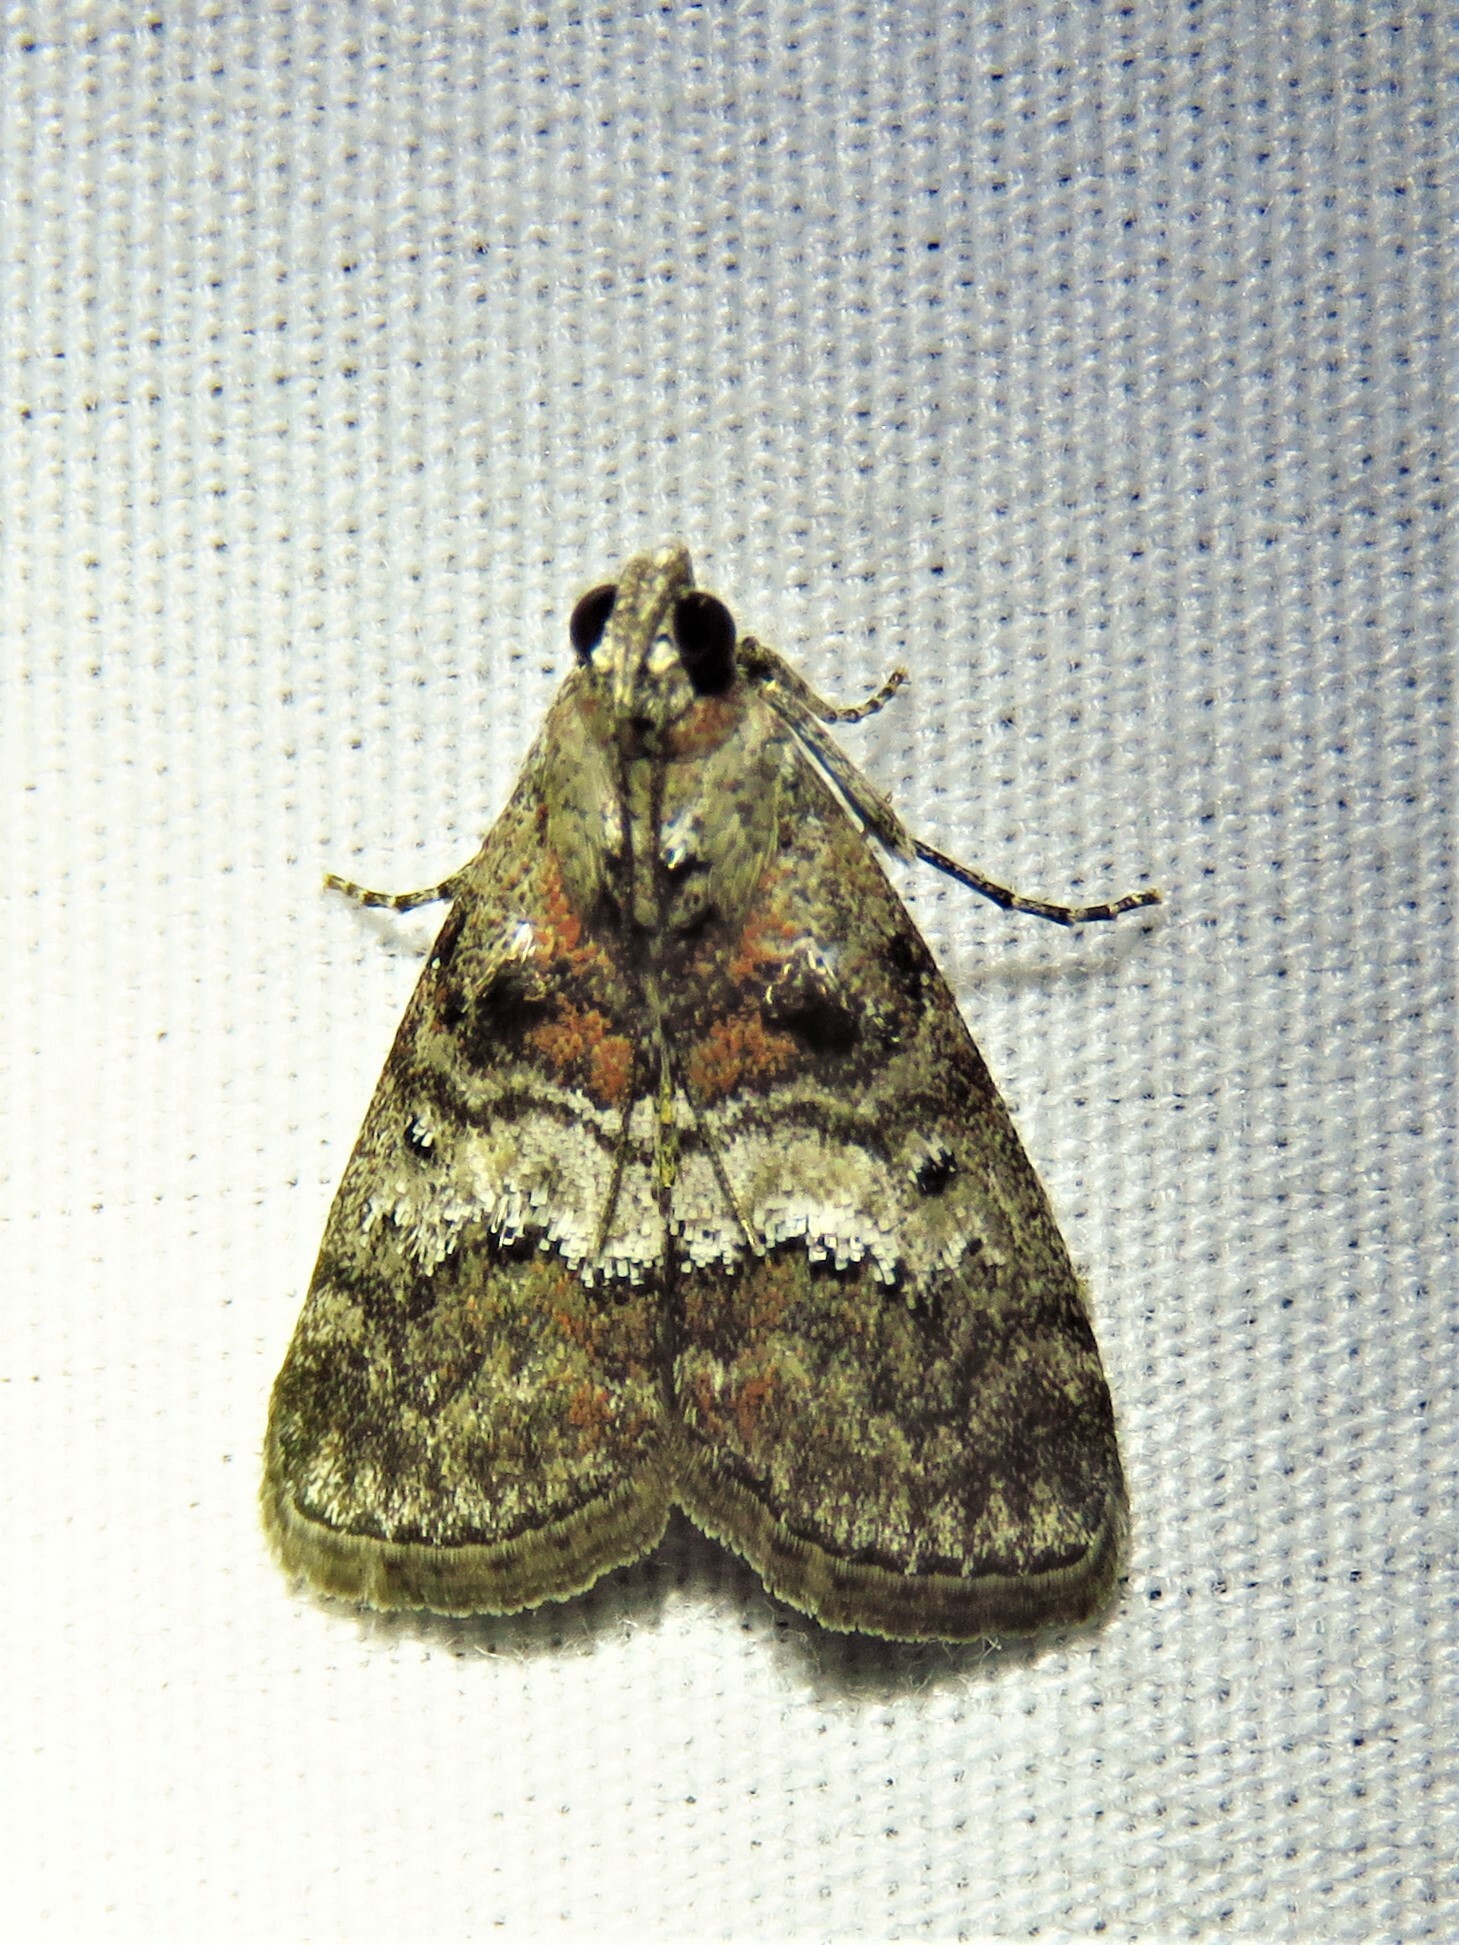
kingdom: Animalia
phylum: Arthropoda
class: Insecta
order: Lepidoptera
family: Pyralidae
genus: Pococera
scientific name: Pococera asperatella
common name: Maple webworm moth
